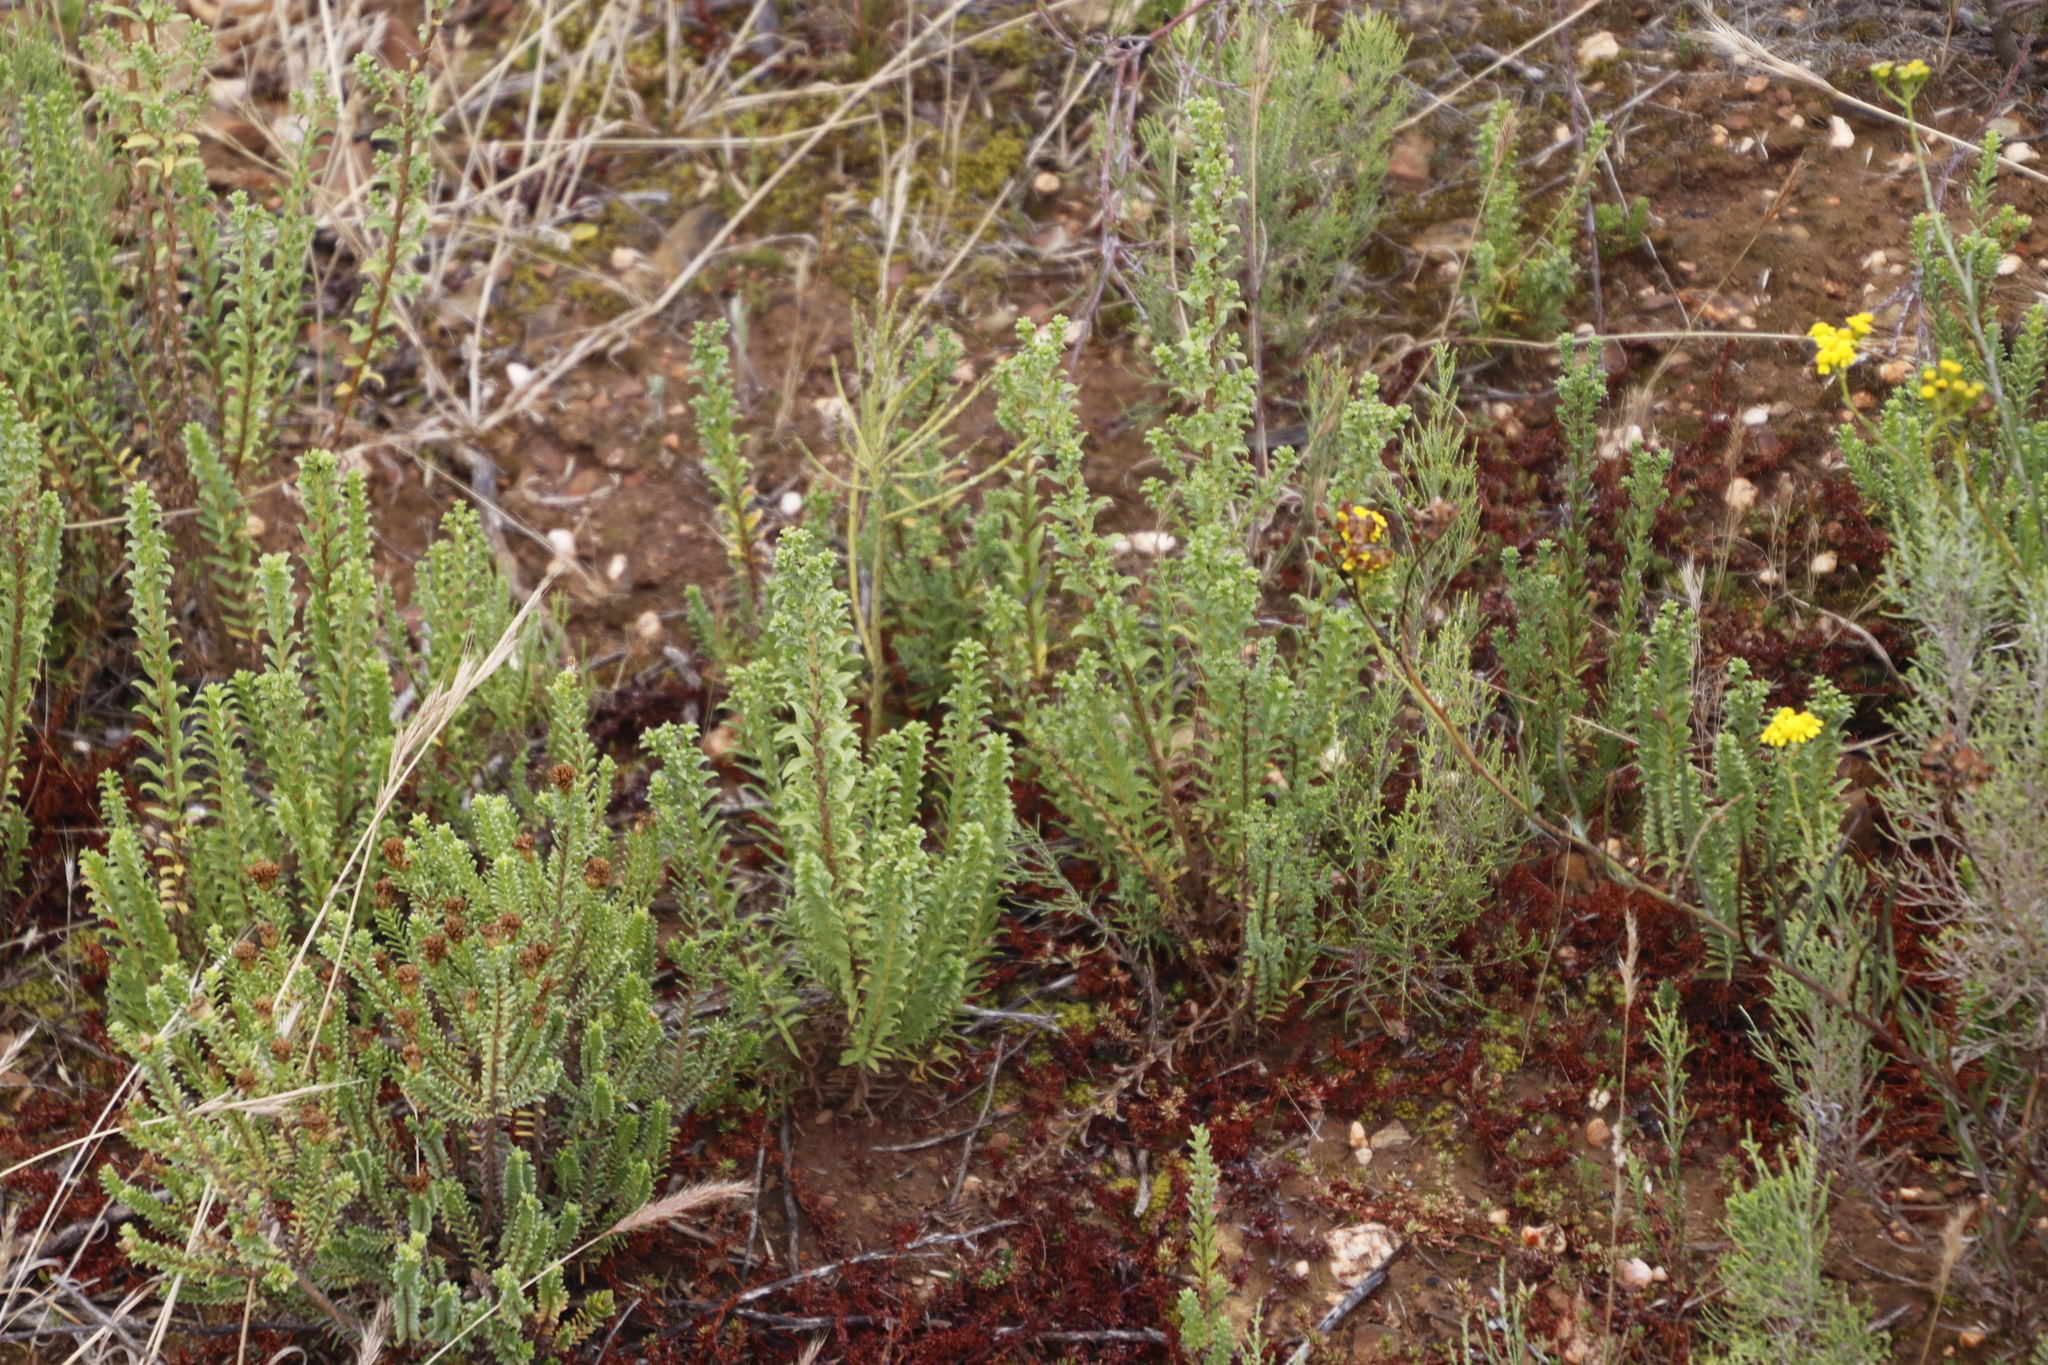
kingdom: Plantae
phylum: Tracheophyta
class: Magnoliopsida
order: Asterales
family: Asteraceae
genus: Oedera
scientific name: Oedera squarrosa
